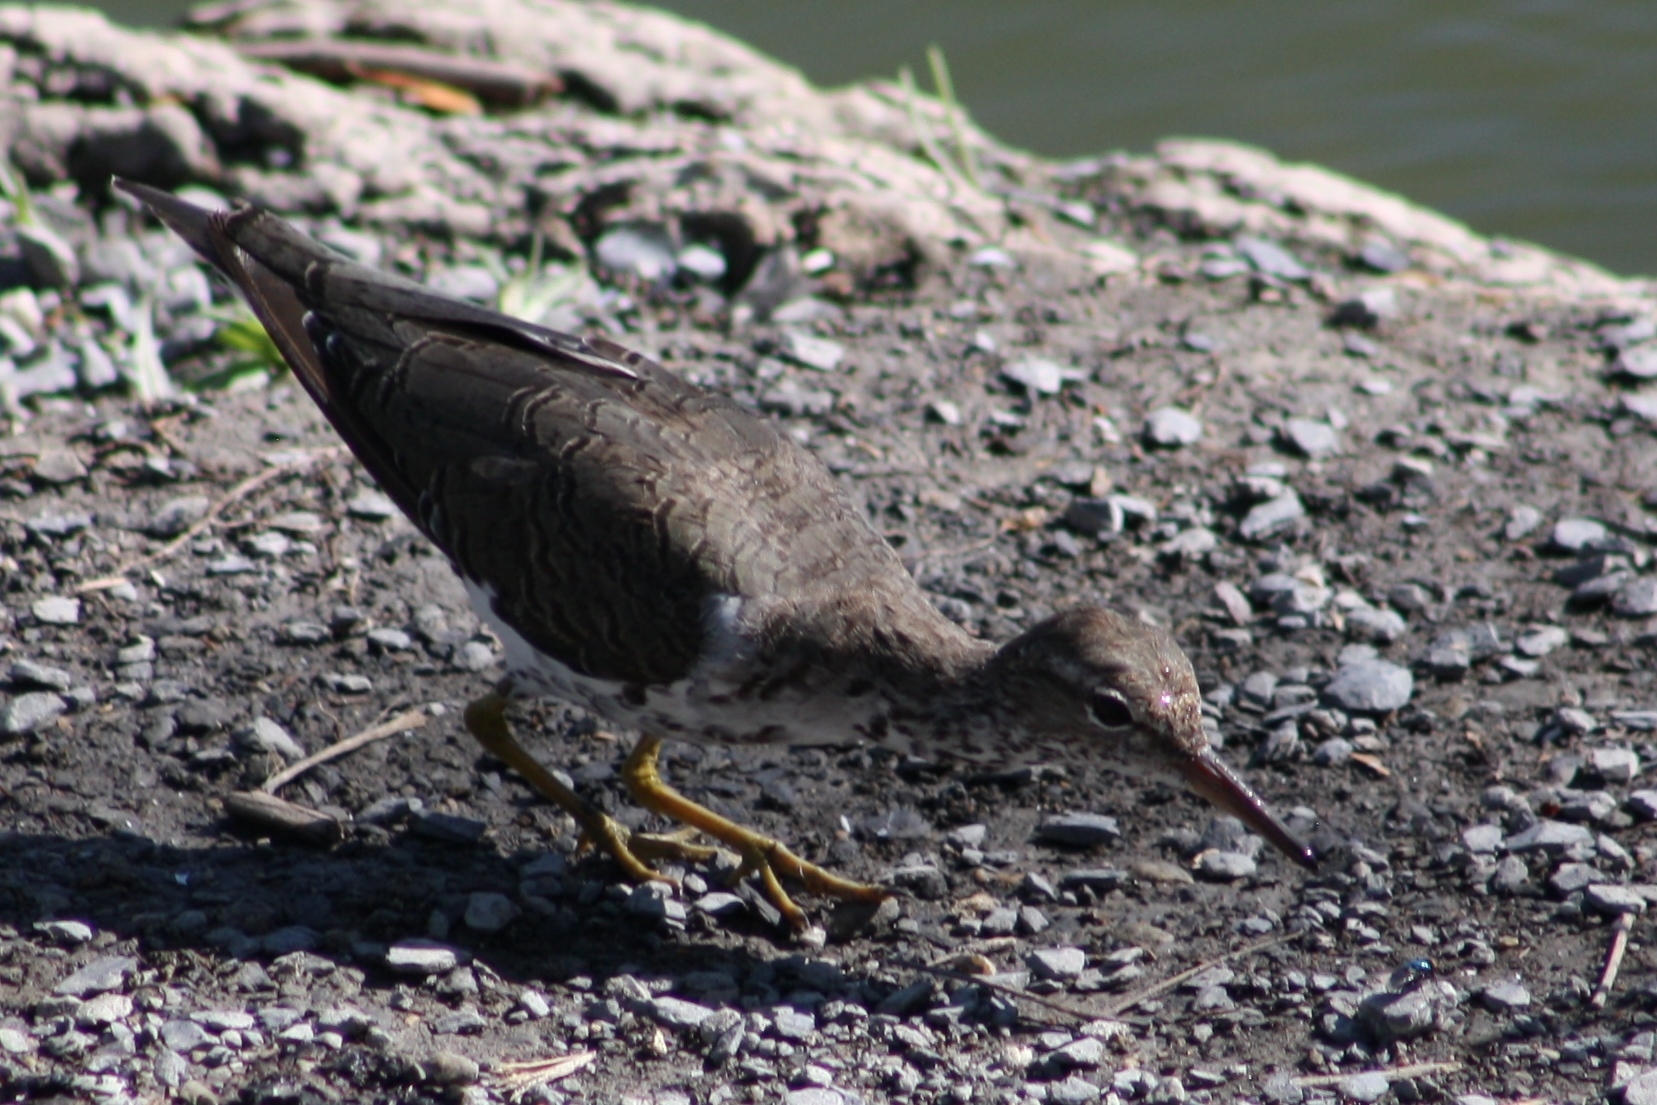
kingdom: Animalia
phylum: Chordata
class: Aves
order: Charadriiformes
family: Scolopacidae
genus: Actitis
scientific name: Actitis macularius
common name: Spotted sandpiper
